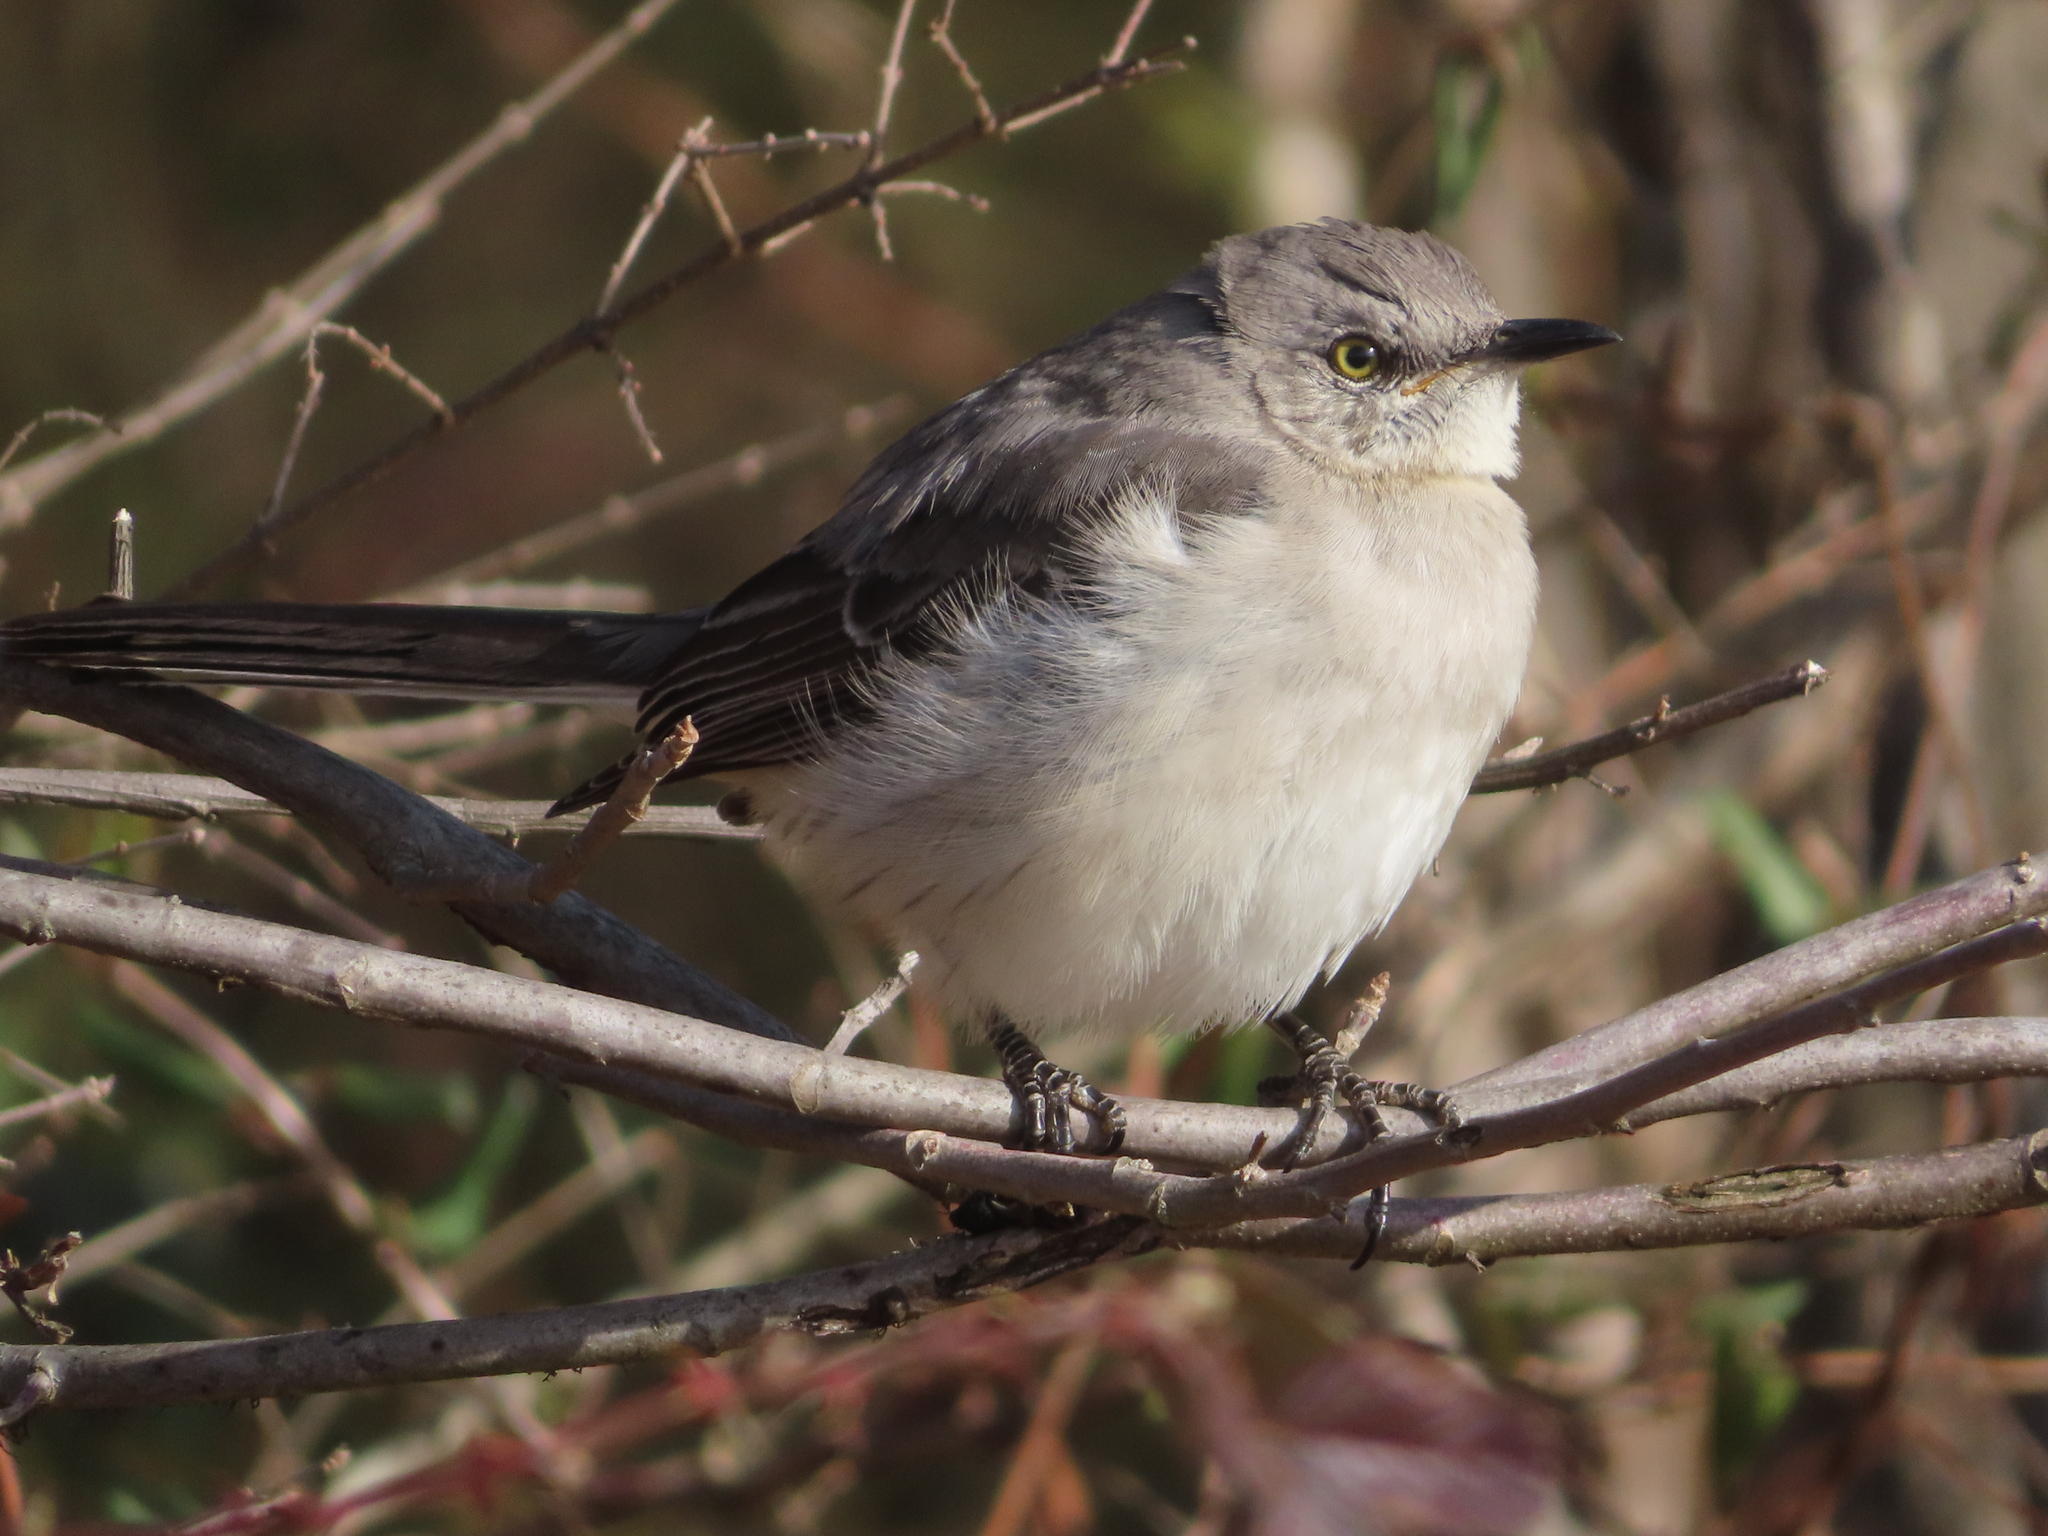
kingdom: Animalia
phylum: Chordata
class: Aves
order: Passeriformes
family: Mimidae
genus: Mimus
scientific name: Mimus polyglottos
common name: Northern mockingbird
